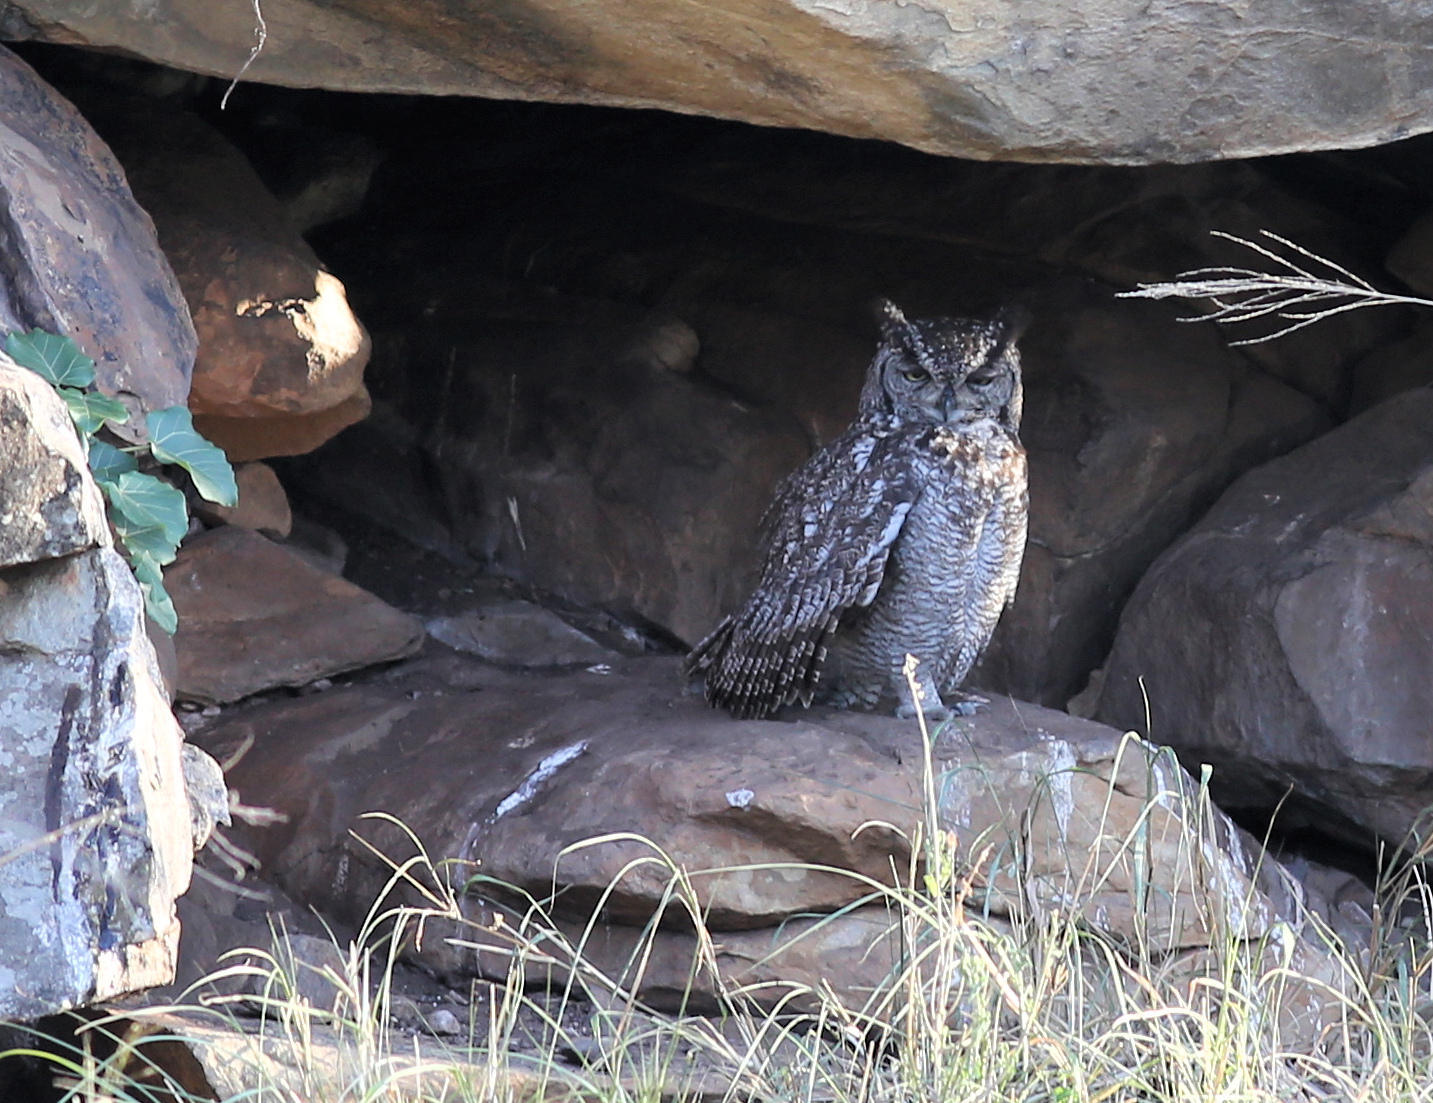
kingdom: Animalia
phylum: Chordata
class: Aves
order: Strigiformes
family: Strigidae
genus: Bubo
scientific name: Bubo africanus
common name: Spotted eagle-owl
